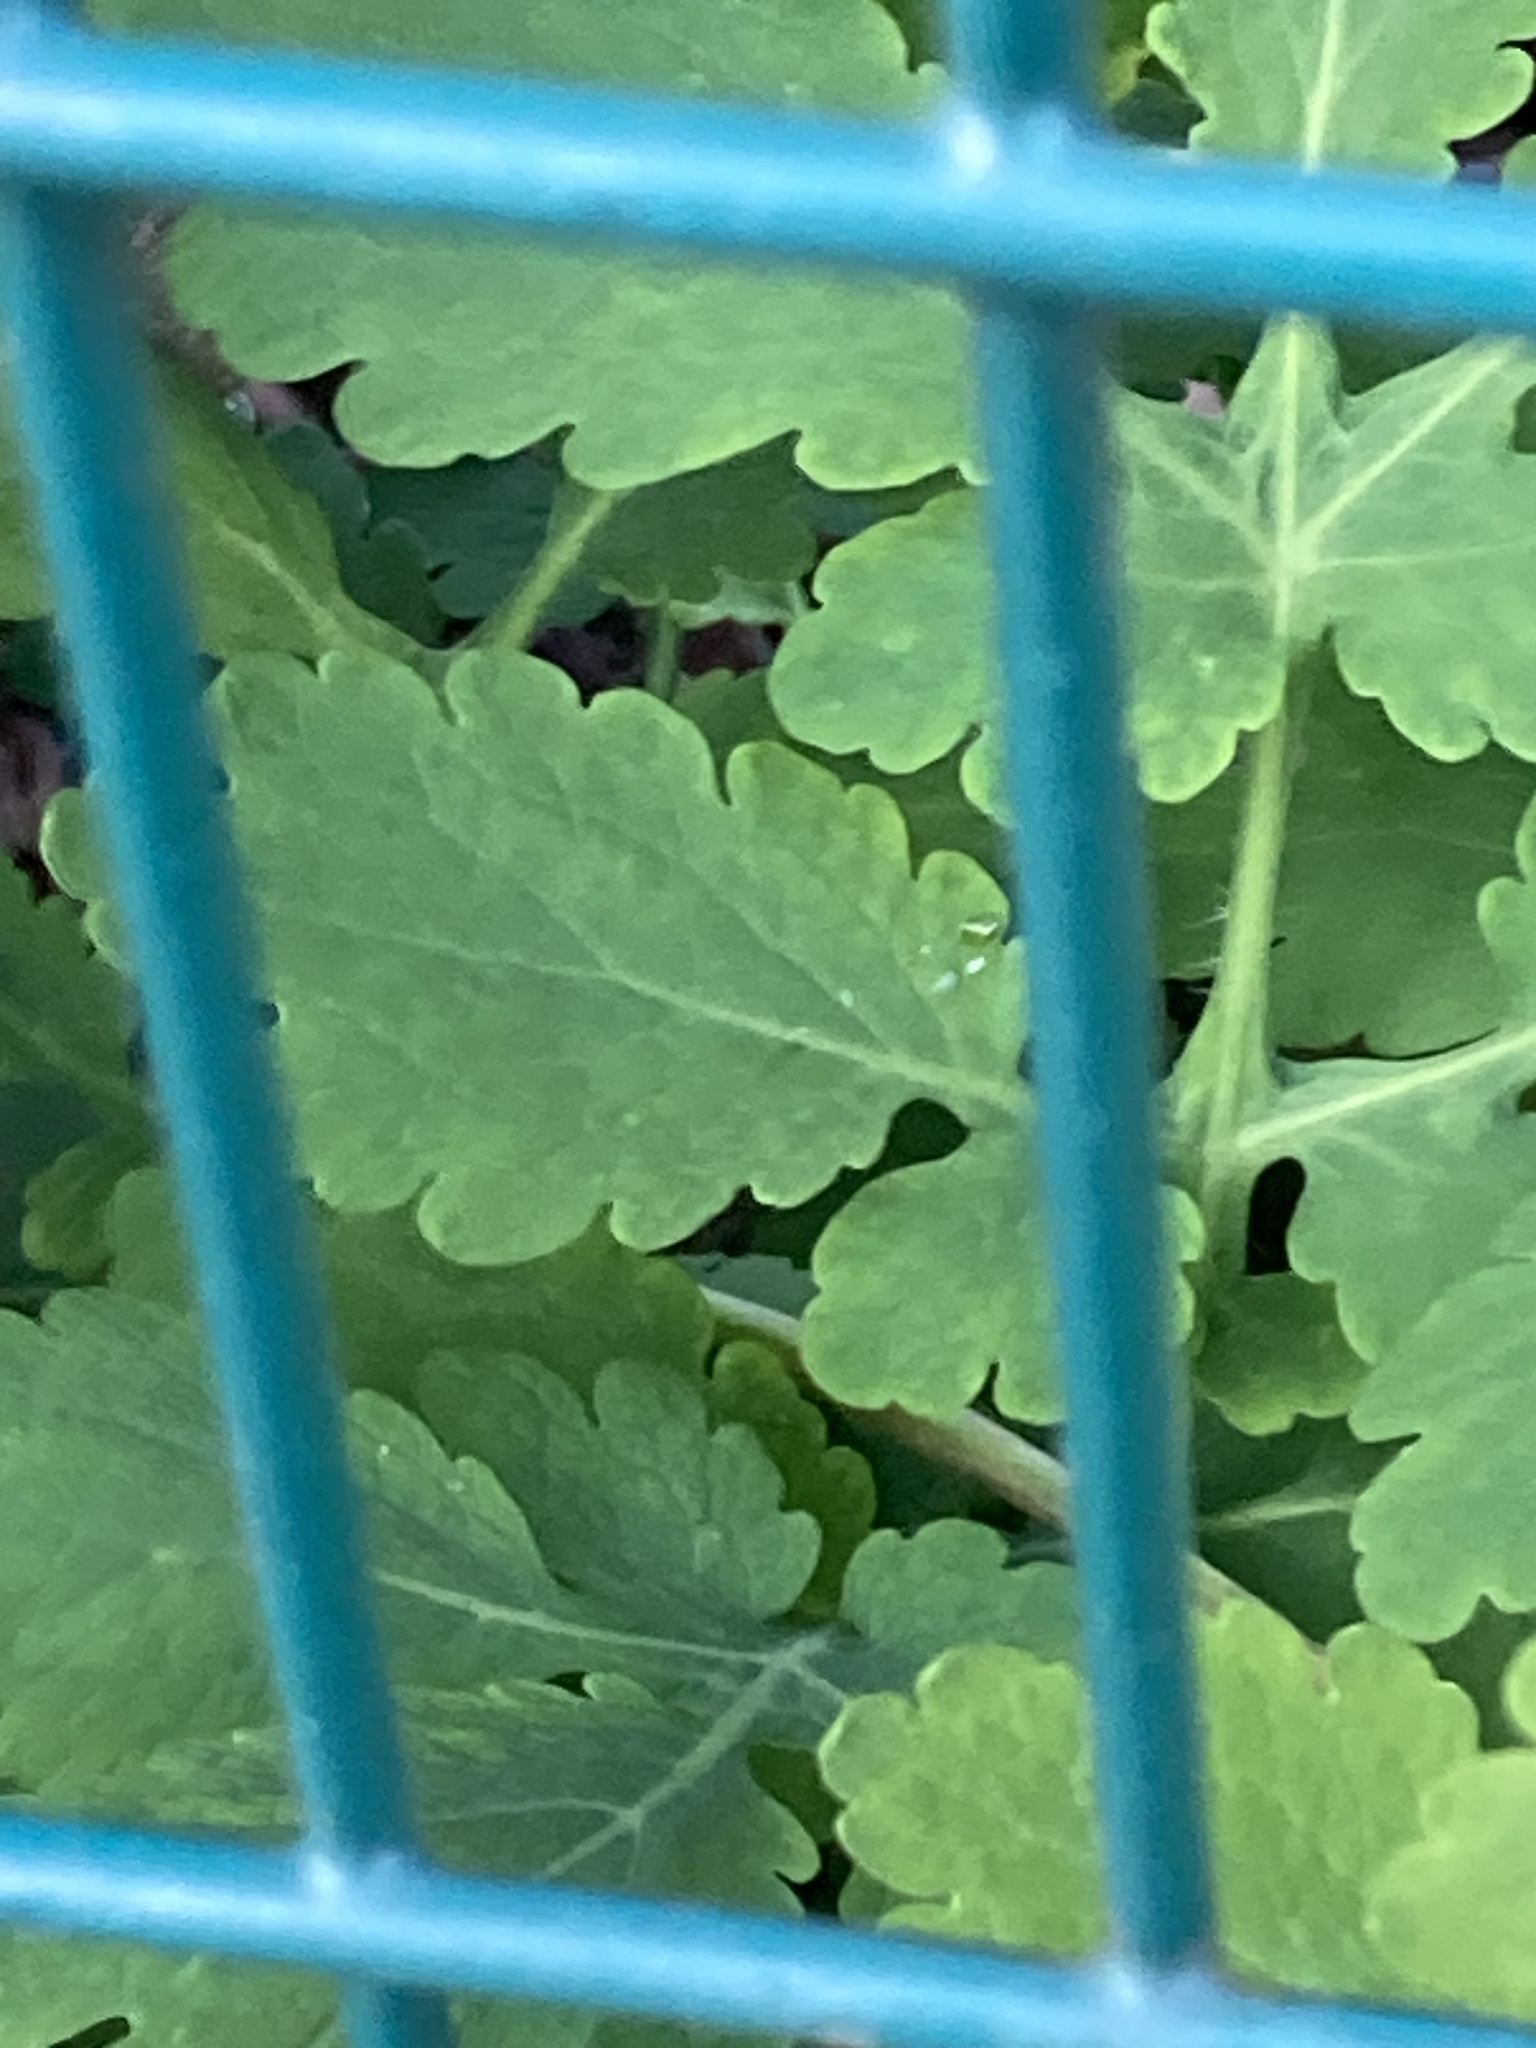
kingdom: Plantae
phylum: Tracheophyta
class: Magnoliopsida
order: Ranunculales
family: Papaveraceae
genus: Chelidonium
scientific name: Chelidonium majus
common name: Greater celandine
